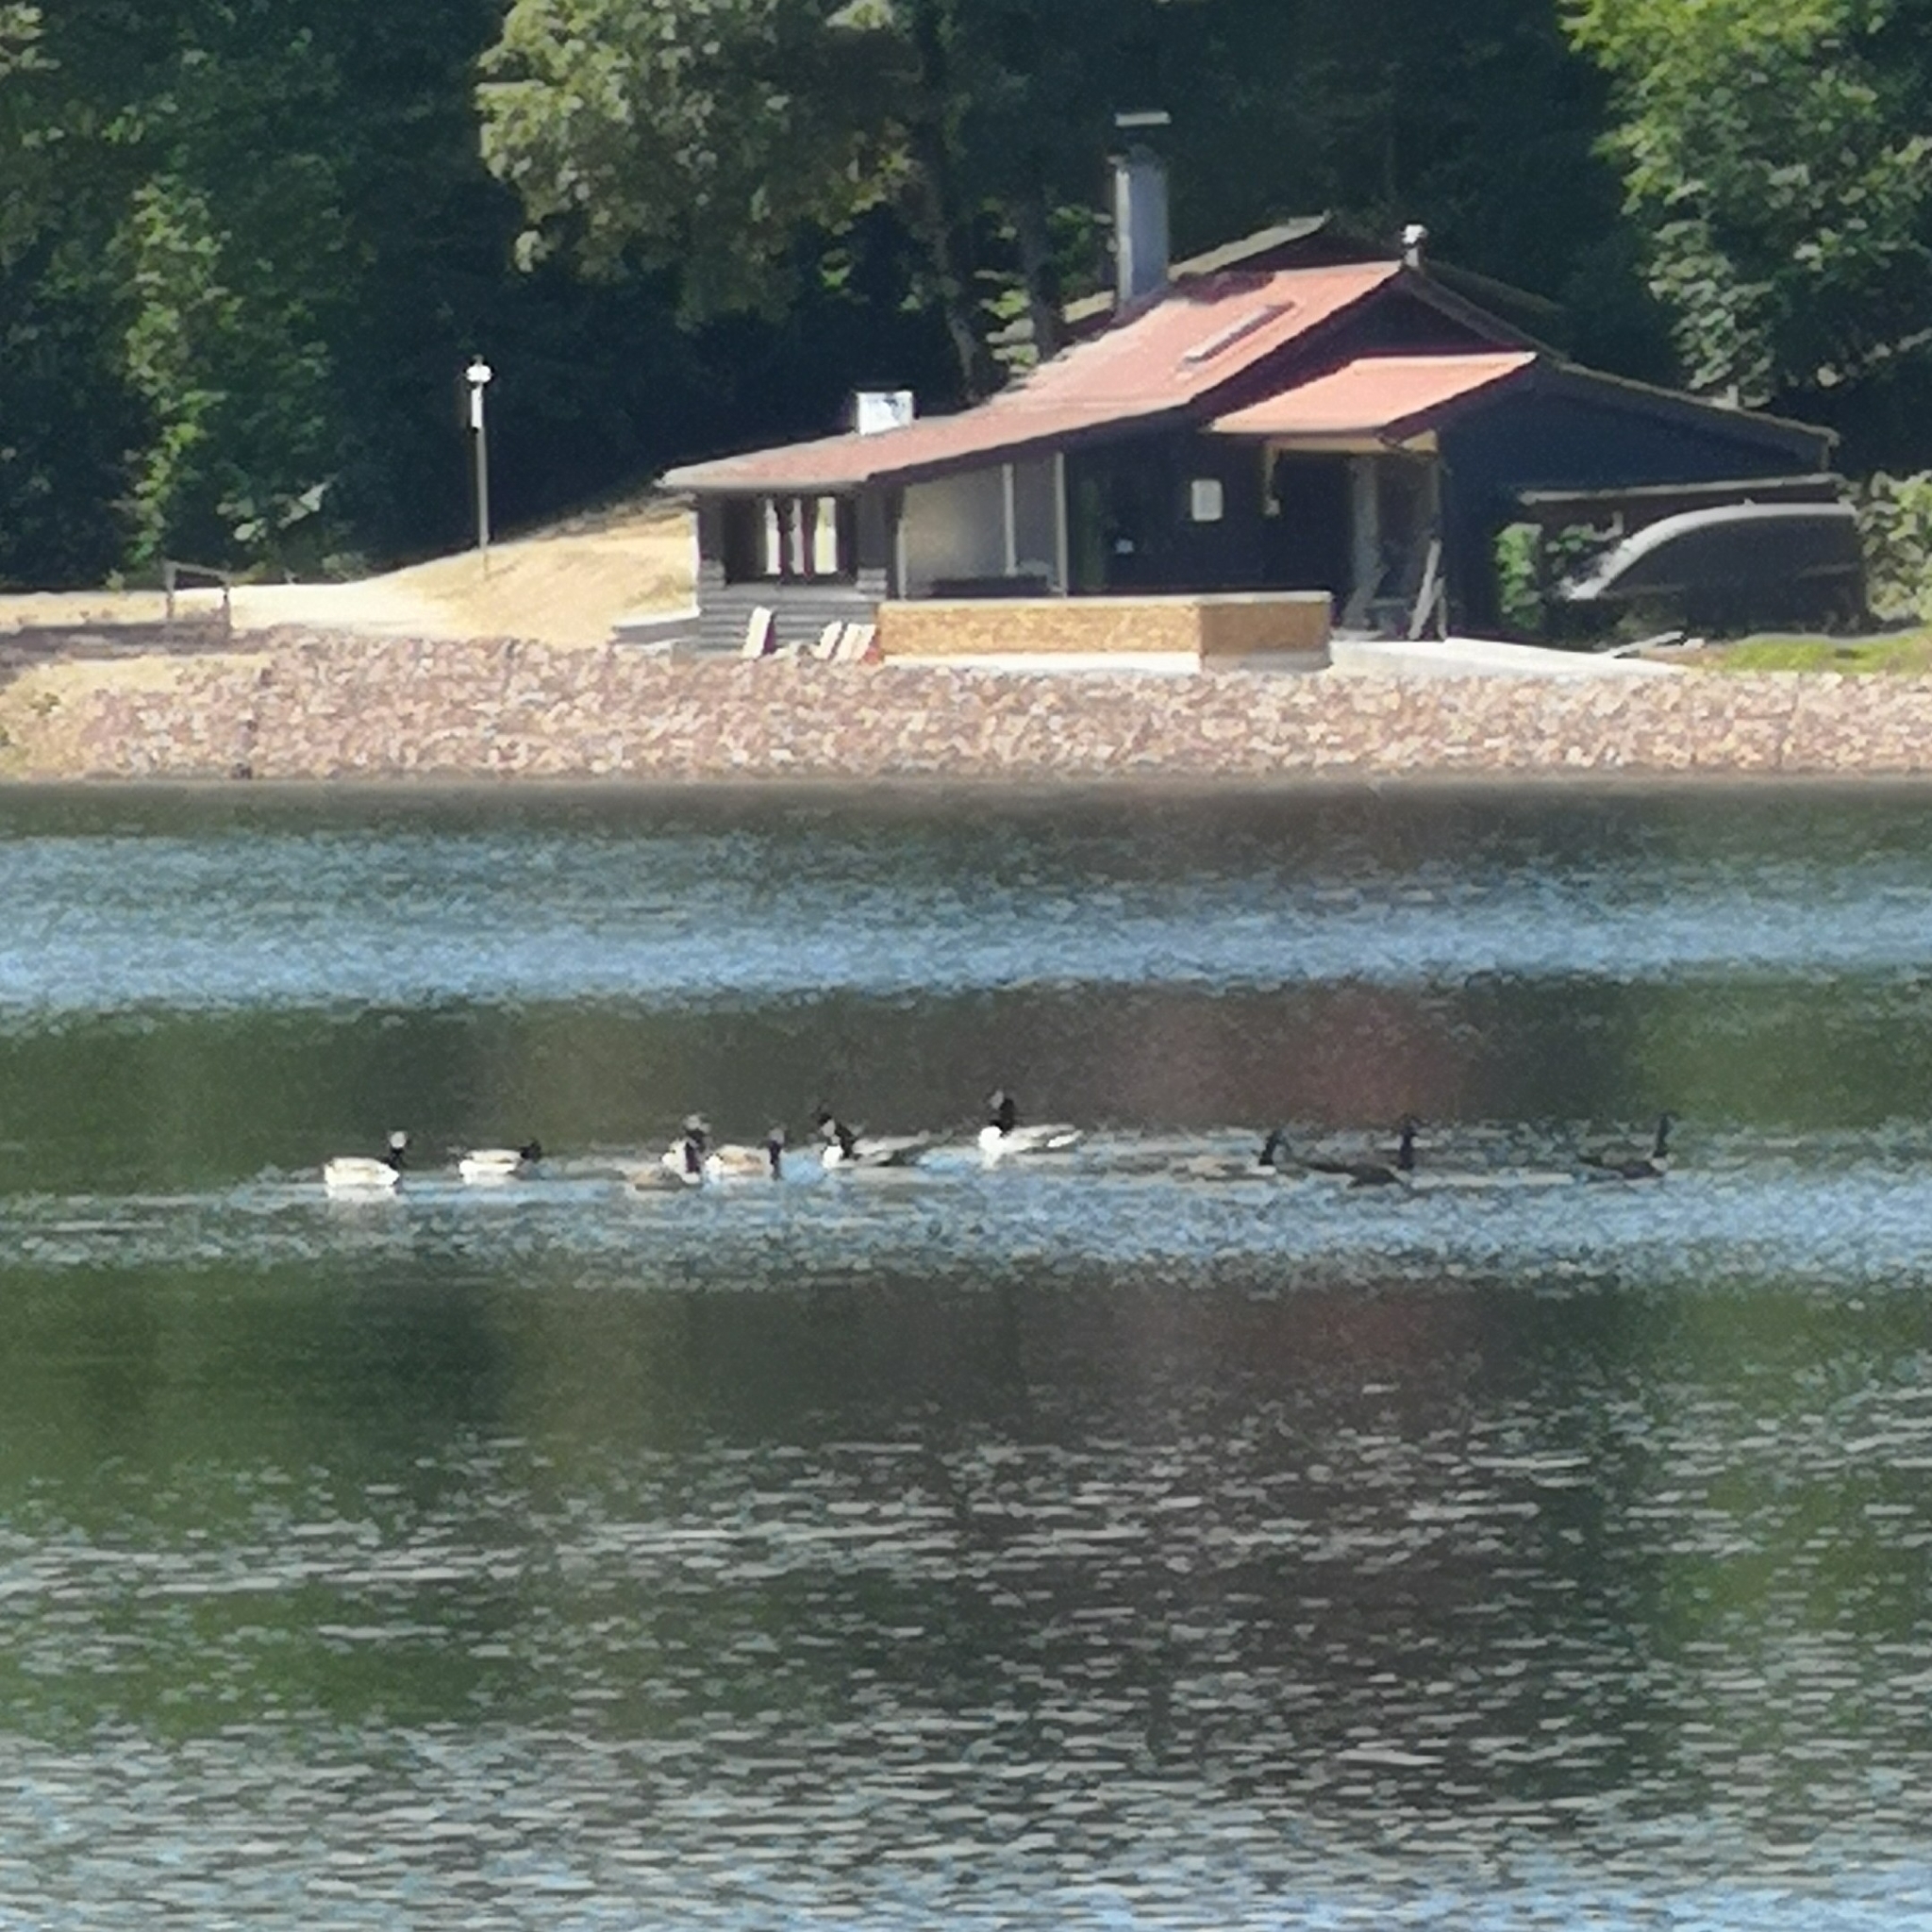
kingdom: Animalia
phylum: Chordata
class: Aves
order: Anseriformes
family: Anatidae
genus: Branta
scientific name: Branta canadensis
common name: Canada goose
